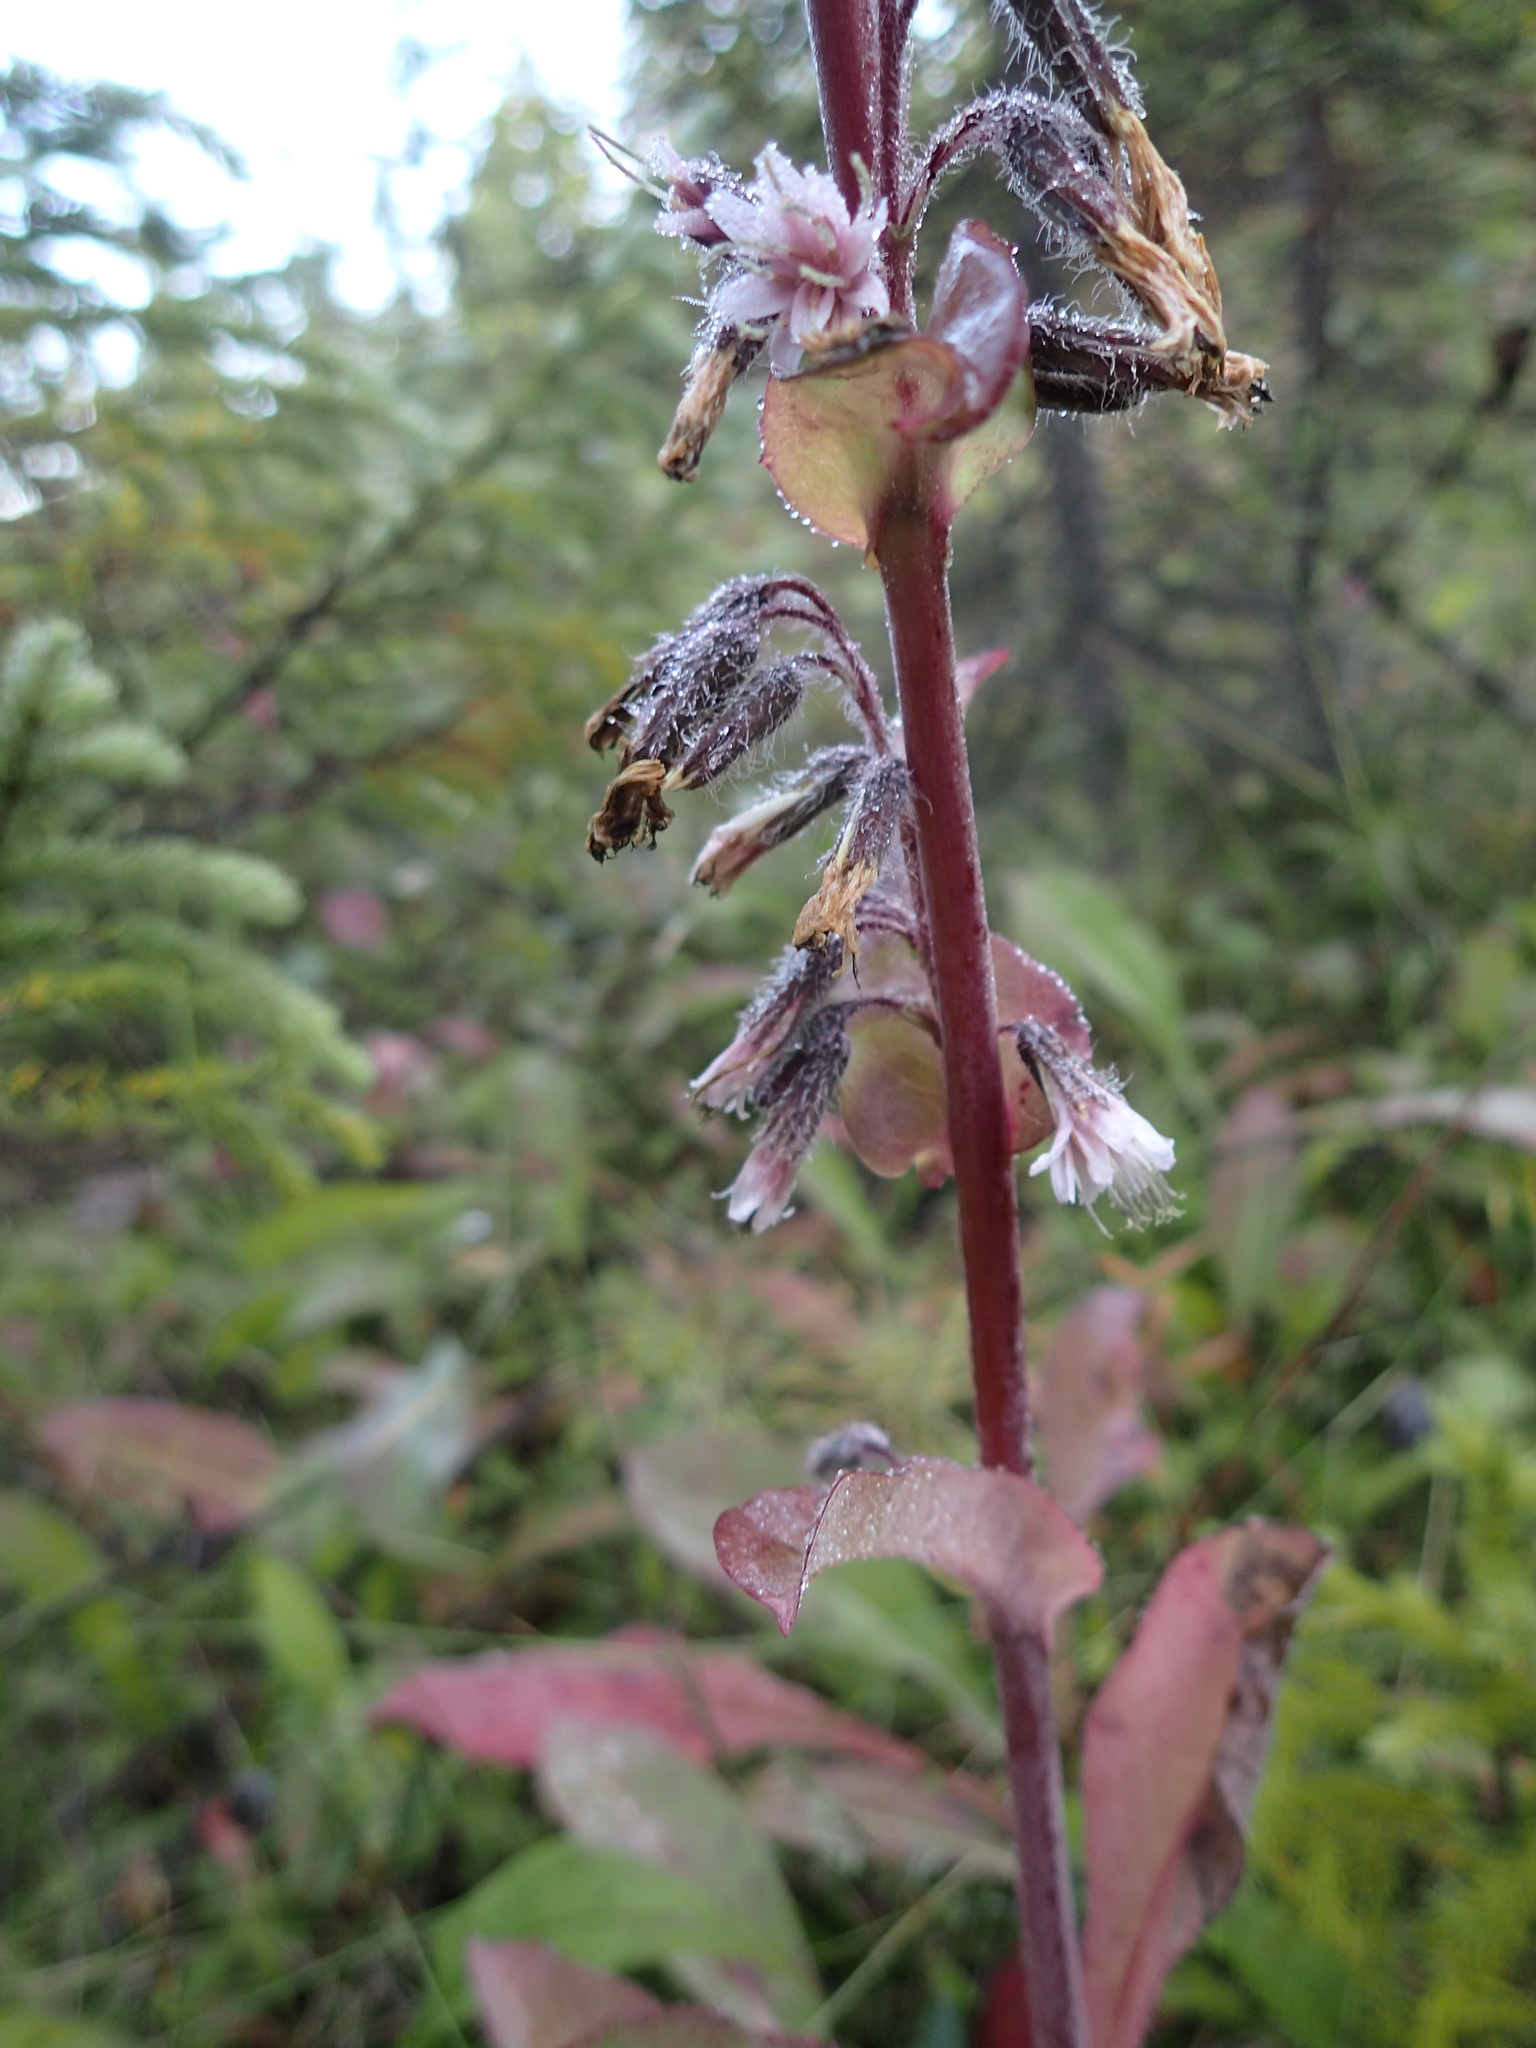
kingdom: Plantae
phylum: Tracheophyta
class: Magnoliopsida
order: Asterales
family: Asteraceae
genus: Nabalus
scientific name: Nabalus racemosus
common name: Glaucous white lettuce
